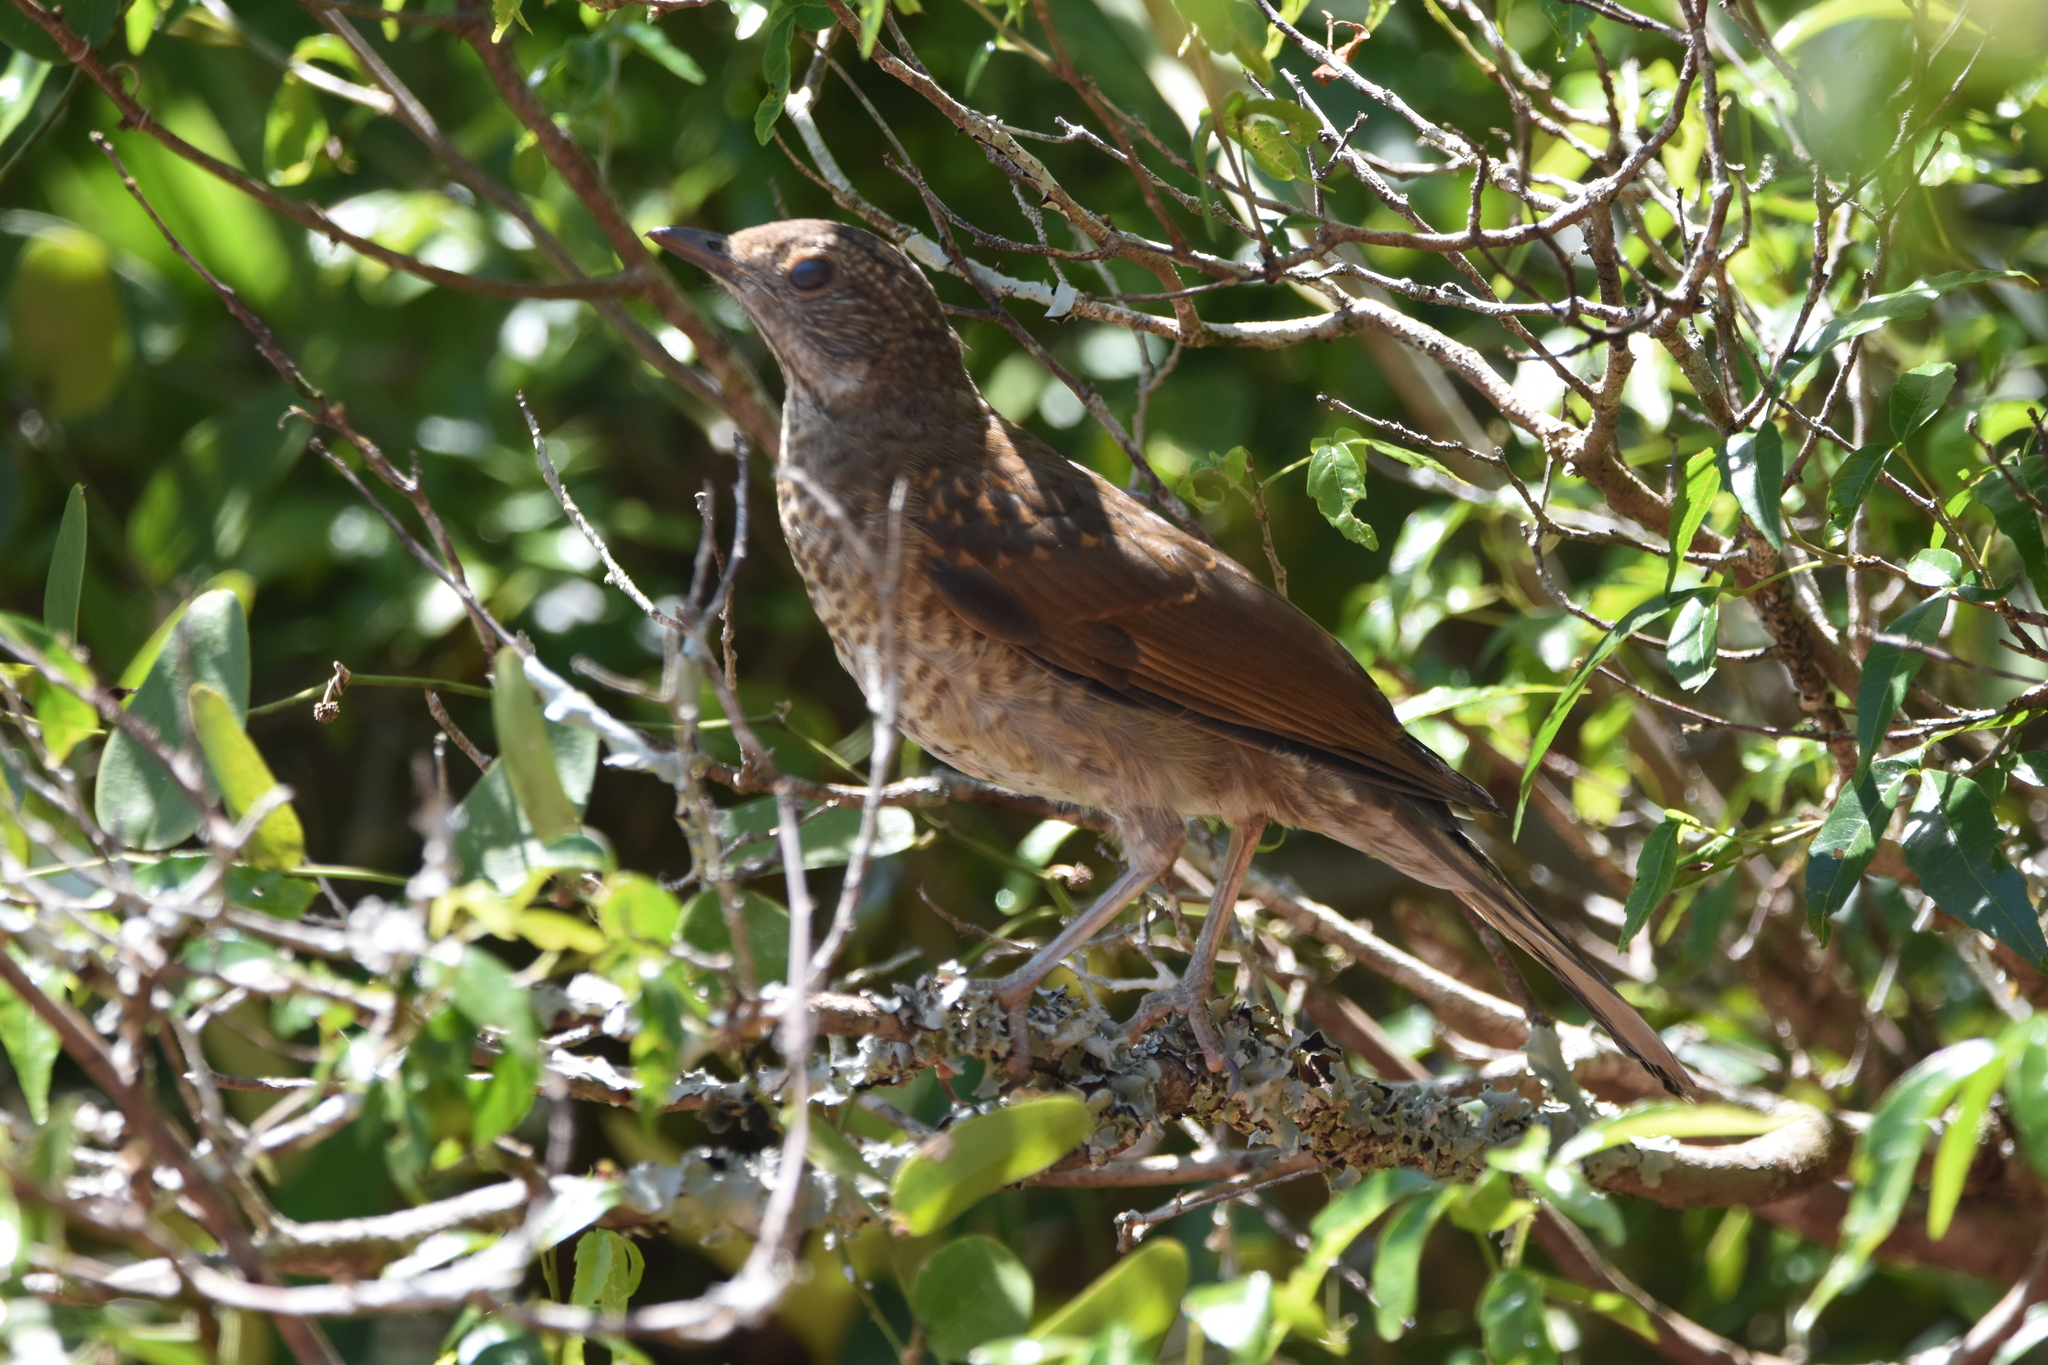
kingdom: Animalia
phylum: Chordata
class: Aves
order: Passeriformes
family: Turdidae
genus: Turdus
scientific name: Turdus leucomelas
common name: Pale-breasted thrush
